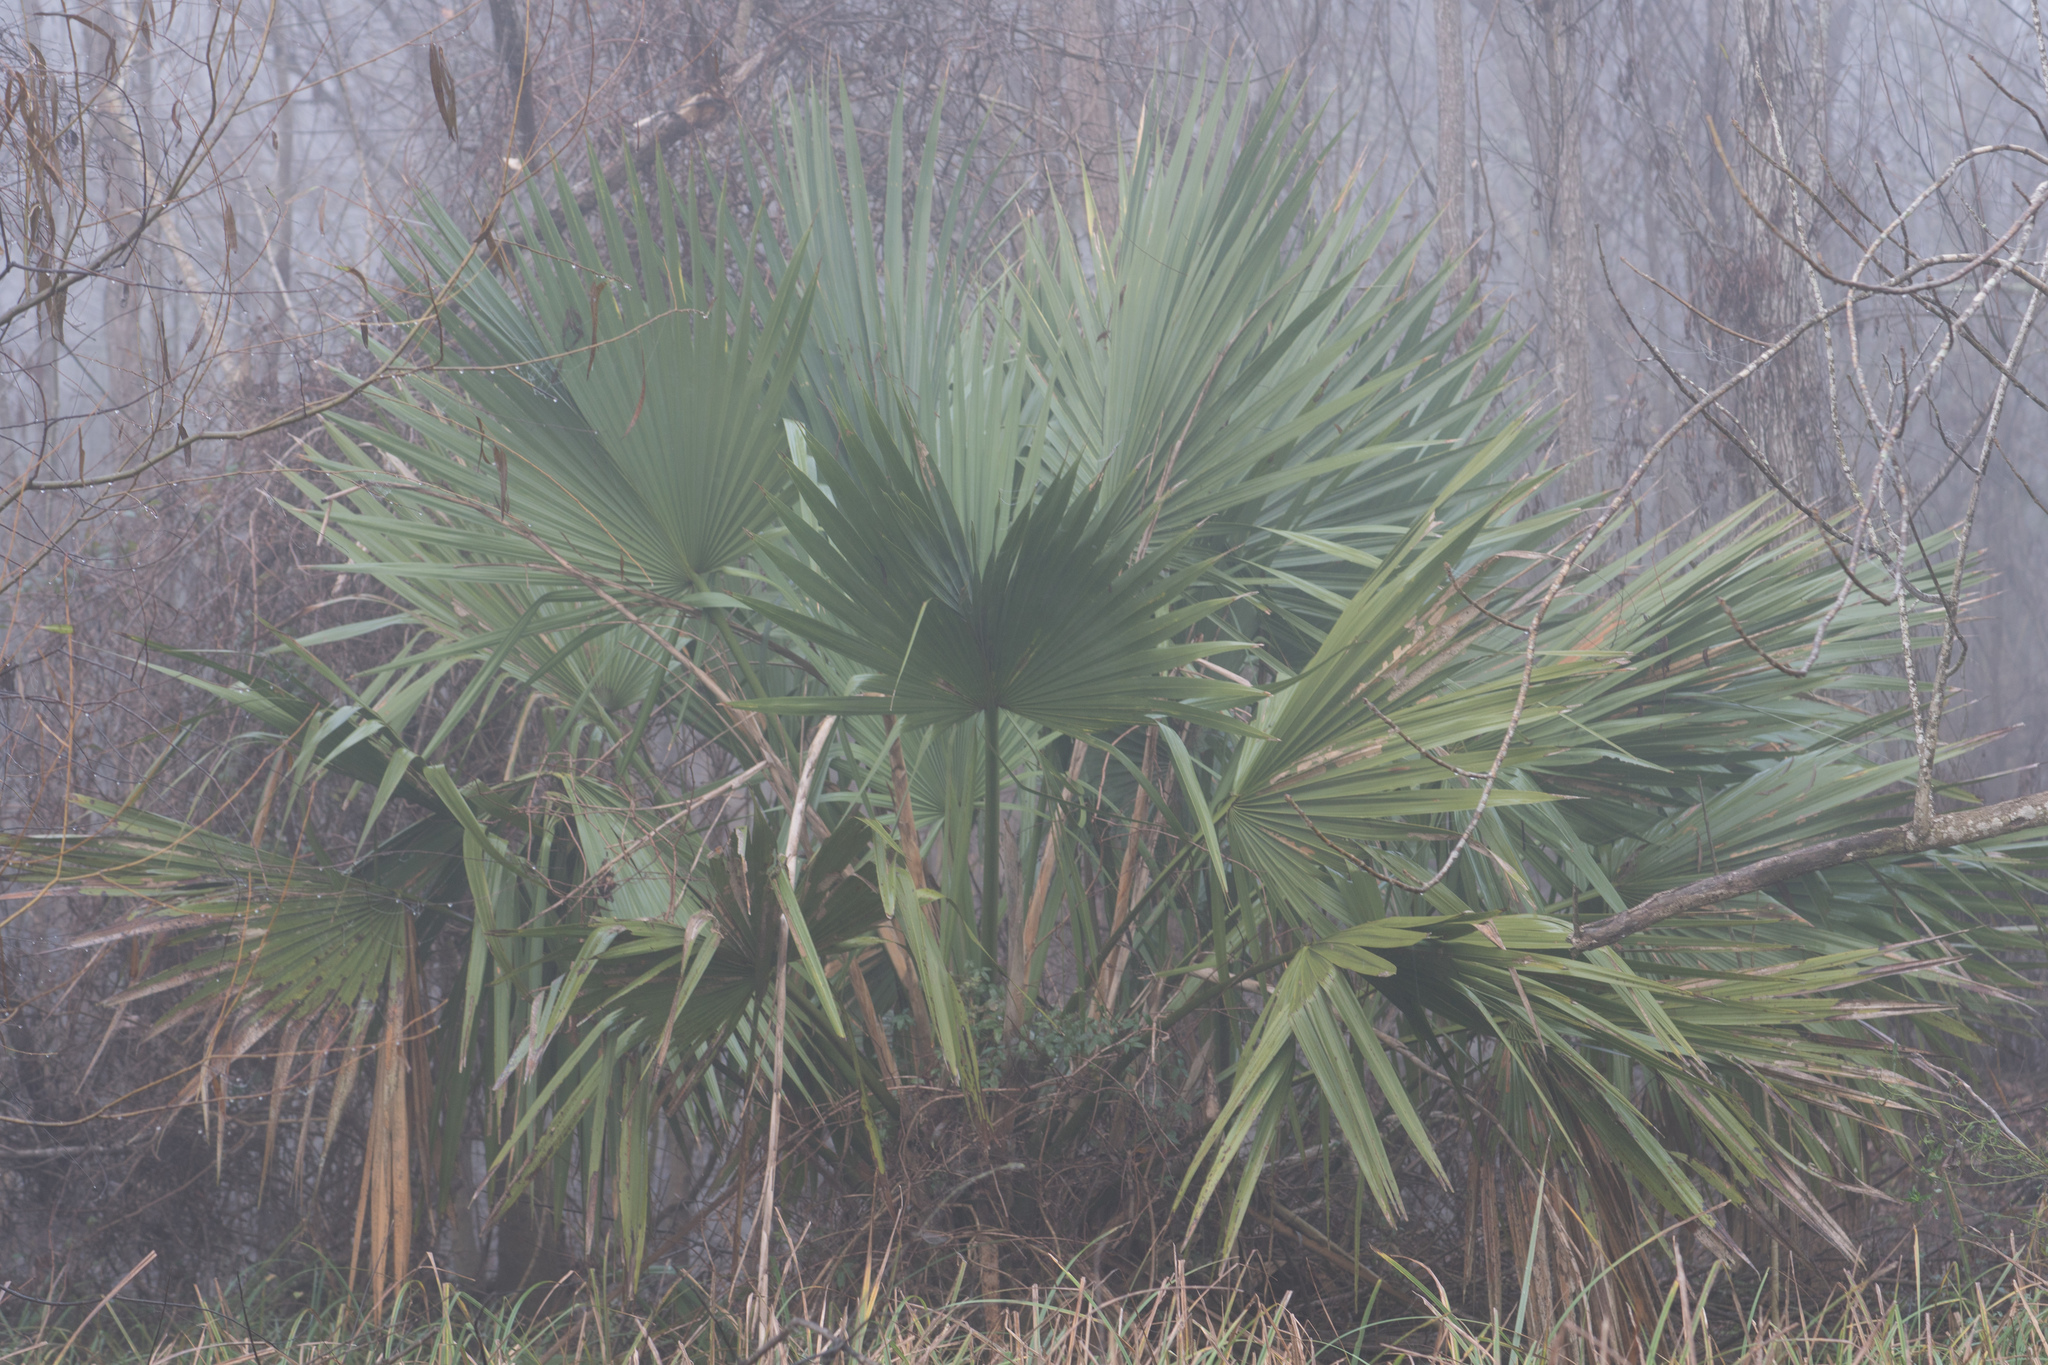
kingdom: Plantae
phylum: Tracheophyta
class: Liliopsida
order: Arecales
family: Arecaceae
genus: Sabal
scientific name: Sabal minor
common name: Dwarf palmetto
